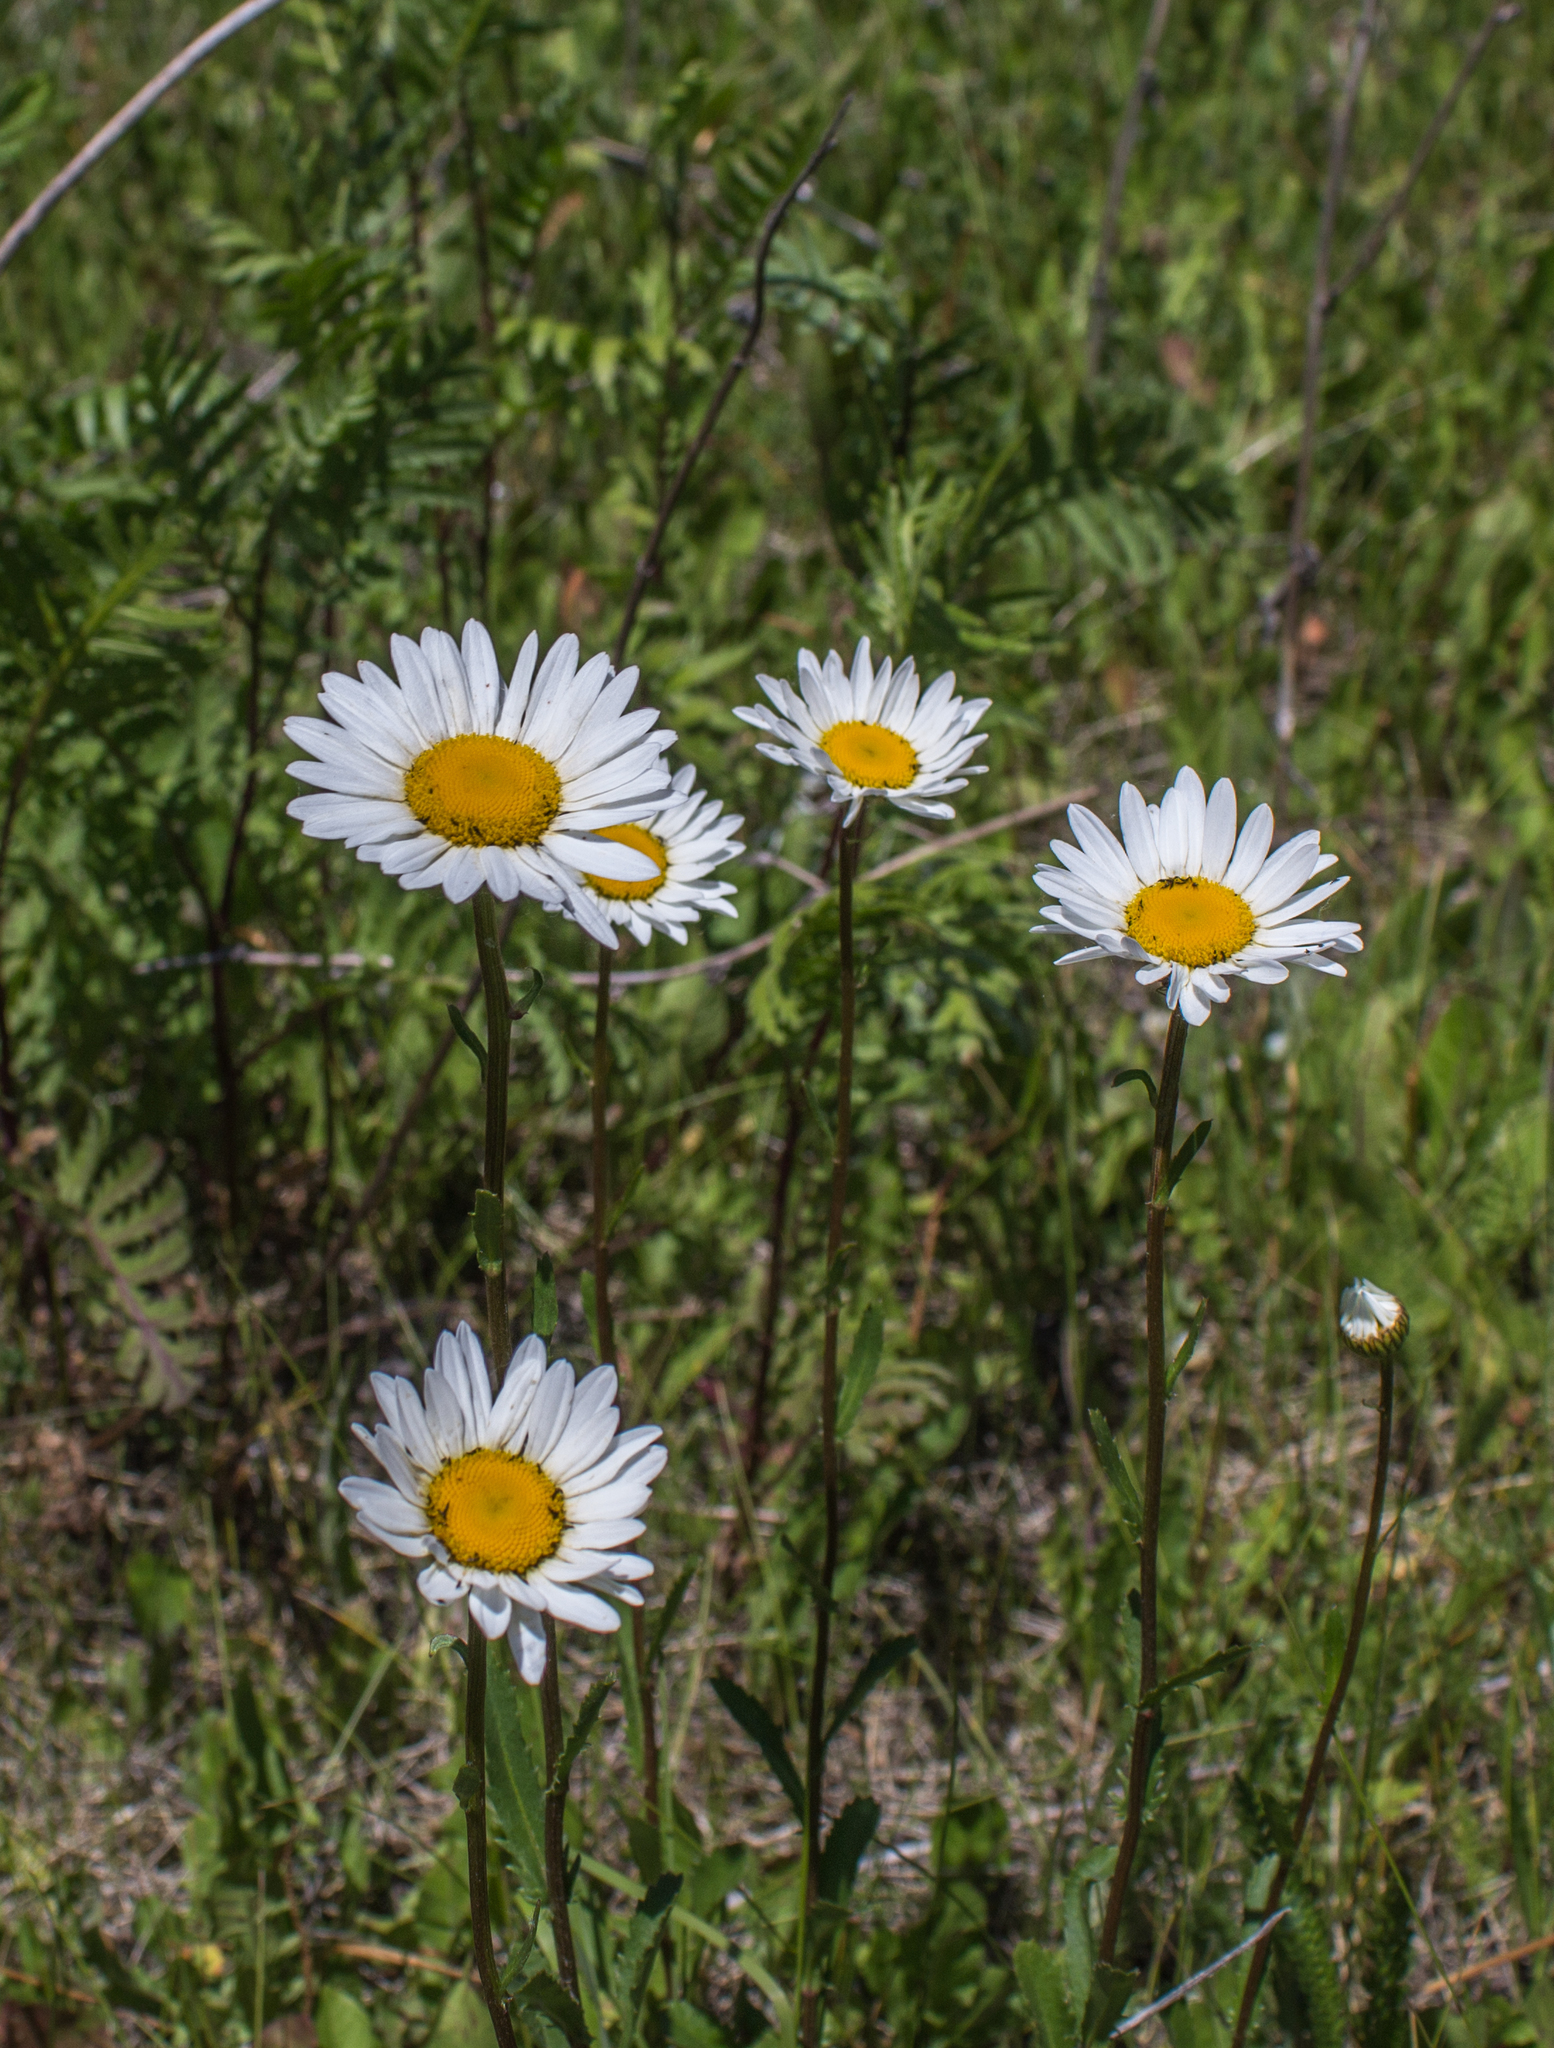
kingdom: Plantae
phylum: Tracheophyta
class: Magnoliopsida
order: Asterales
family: Asteraceae
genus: Leucanthemum
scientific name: Leucanthemum vulgare
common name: Oxeye daisy
